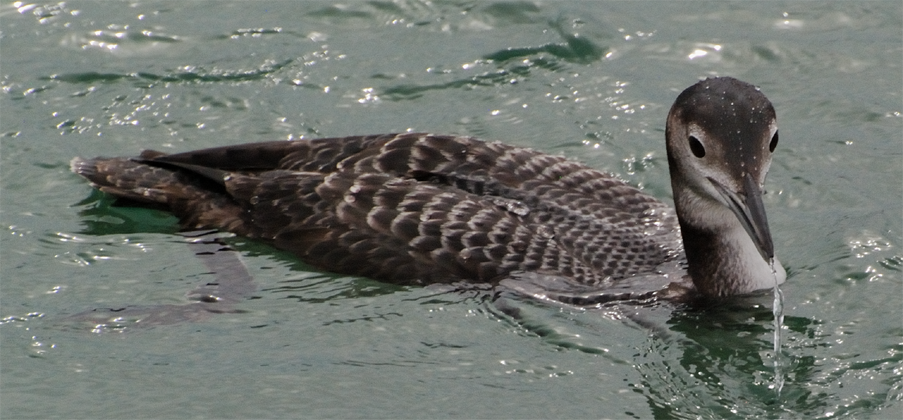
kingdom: Animalia
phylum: Chordata
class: Aves
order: Gaviiformes
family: Gaviidae
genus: Gavia
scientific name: Gavia immer
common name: Common loon
